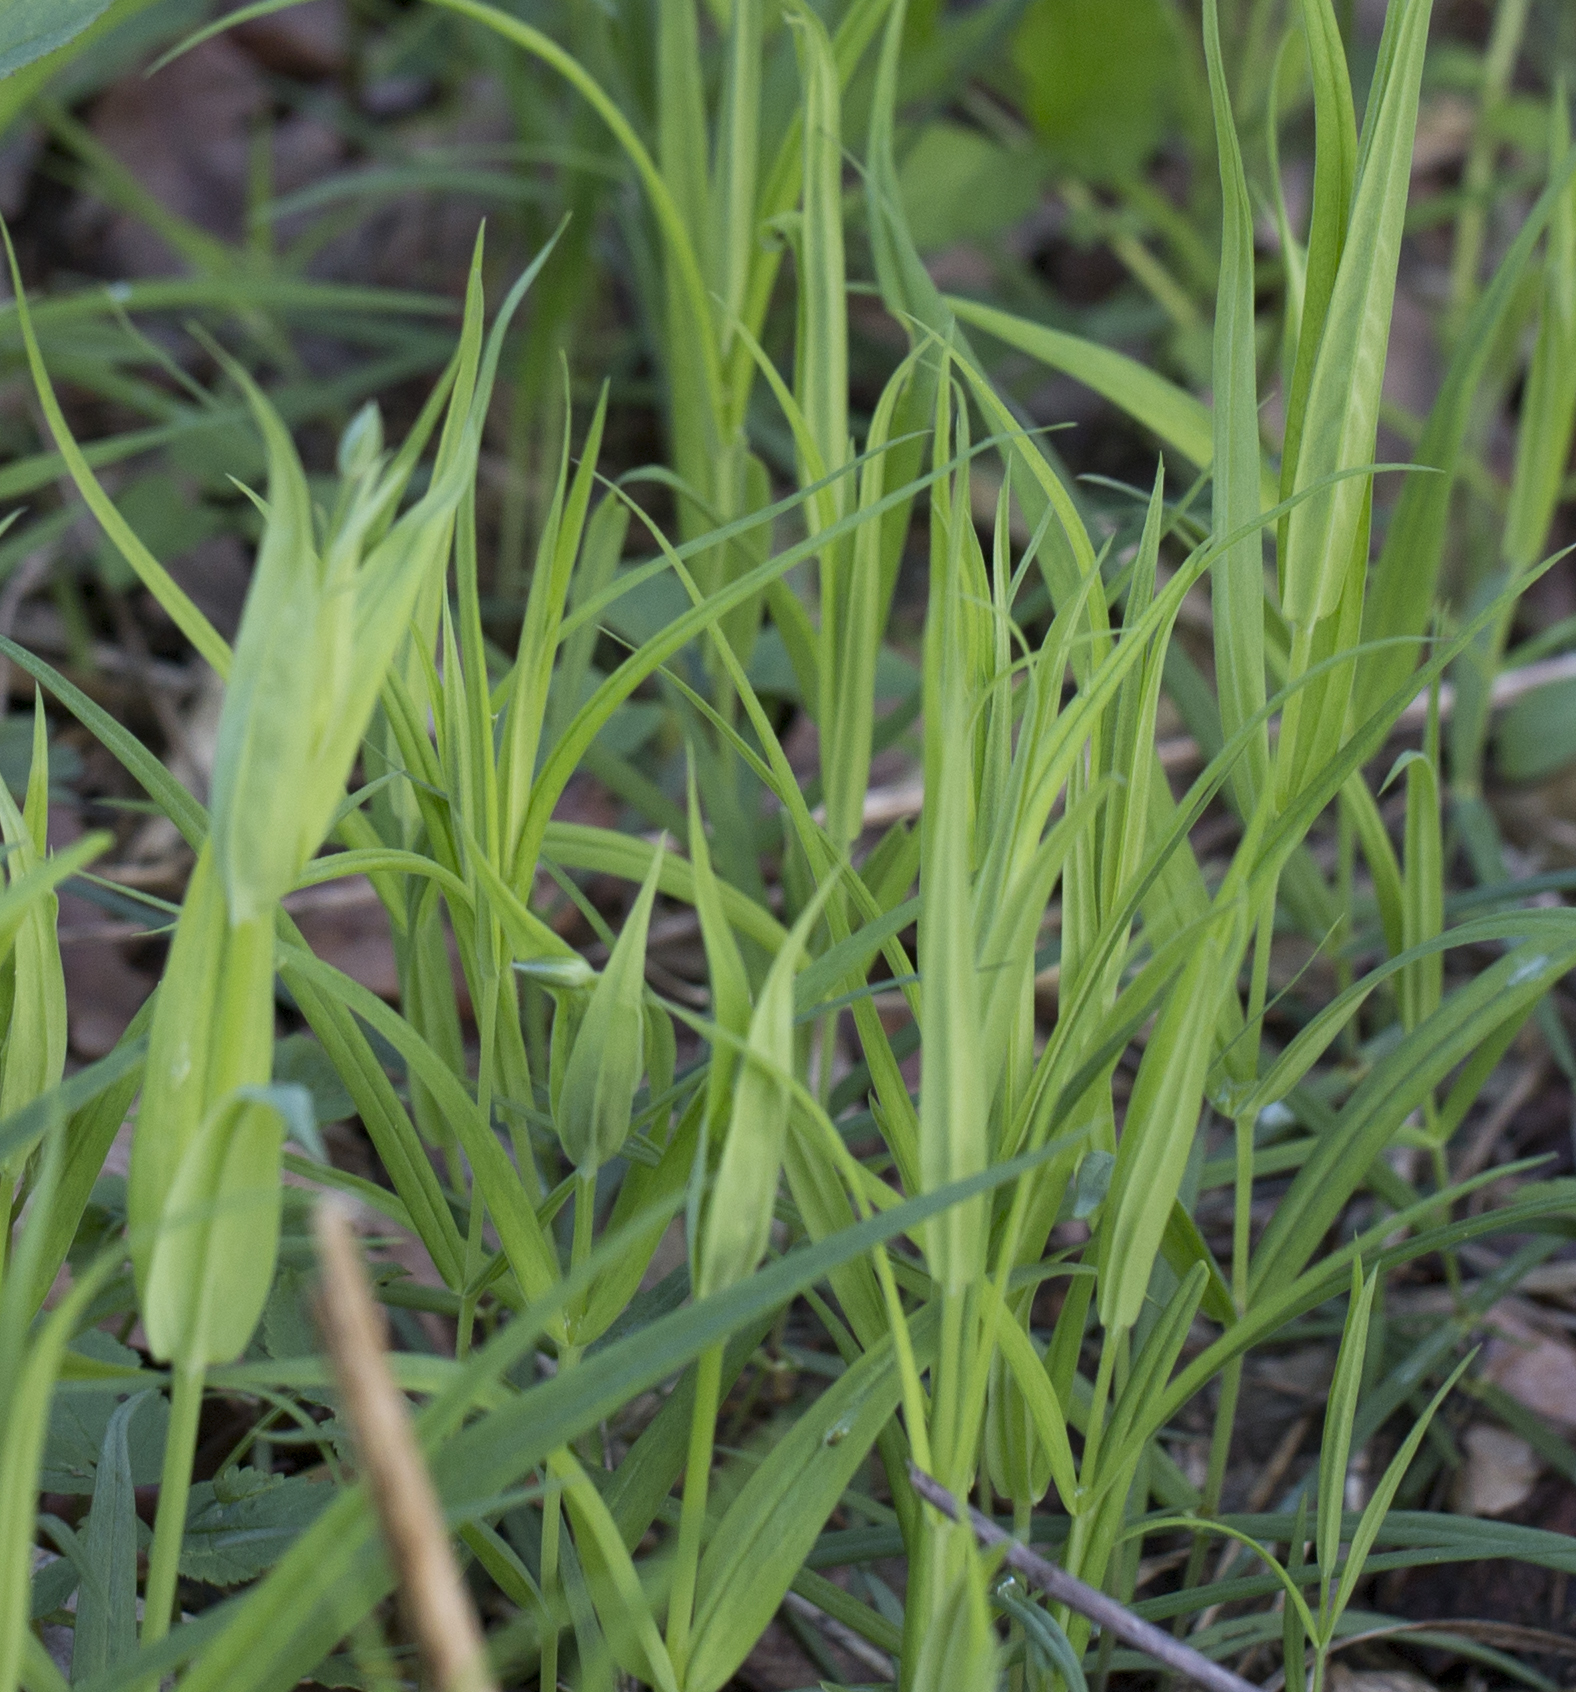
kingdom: Plantae
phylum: Tracheophyta
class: Magnoliopsida
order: Caryophyllales
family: Caryophyllaceae
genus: Rabelera
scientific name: Rabelera holostea
